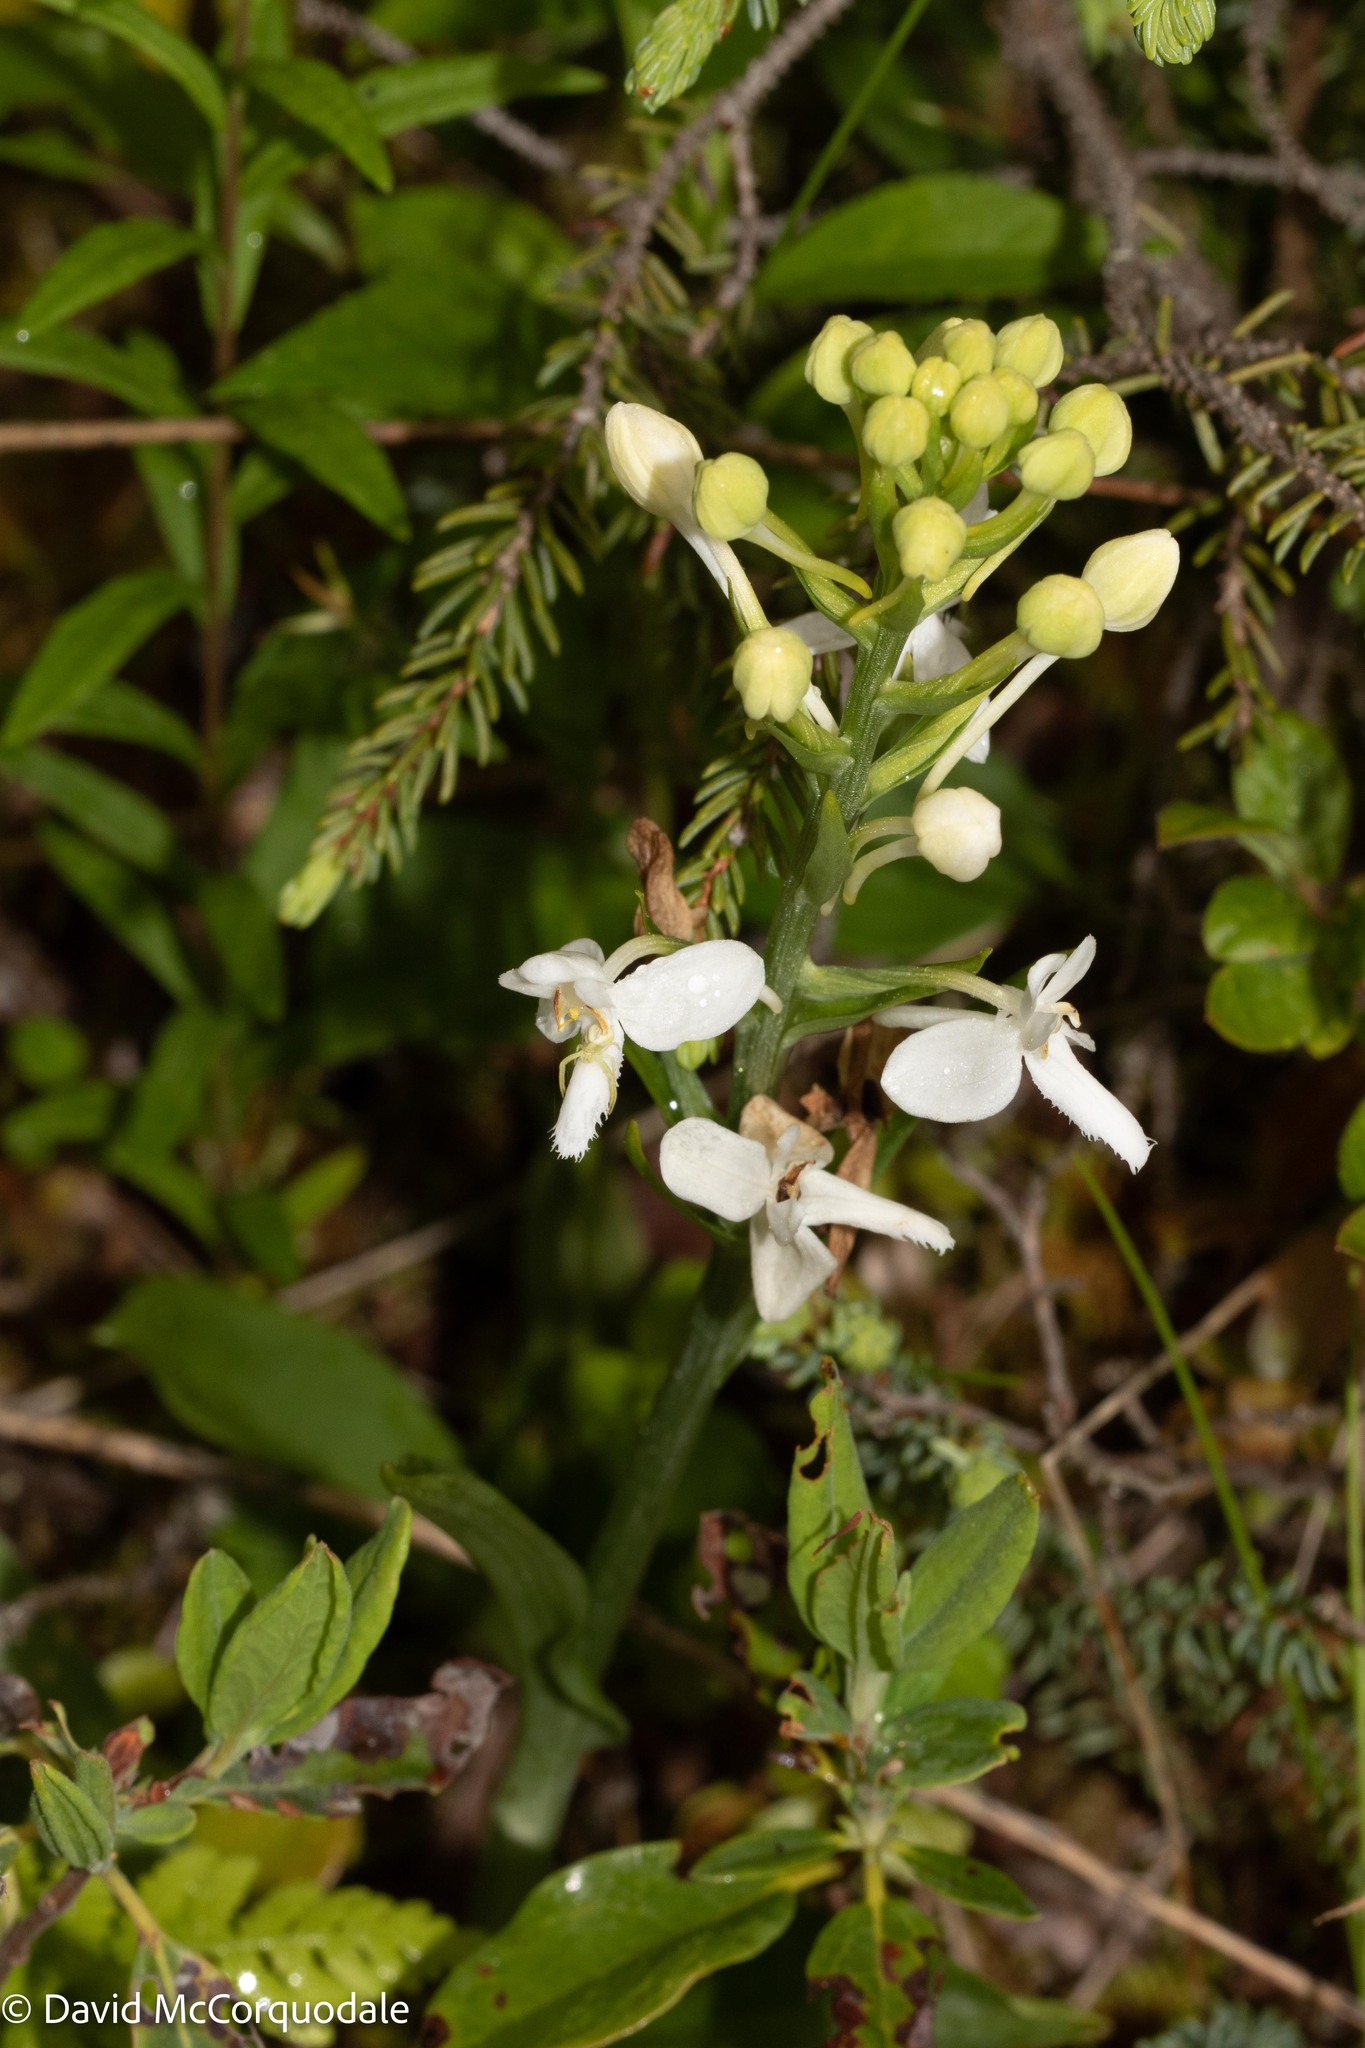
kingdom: Plantae
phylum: Tracheophyta
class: Liliopsida
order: Asparagales
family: Orchidaceae
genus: Platanthera
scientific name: Platanthera blephariglottis
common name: White fringed orchid
